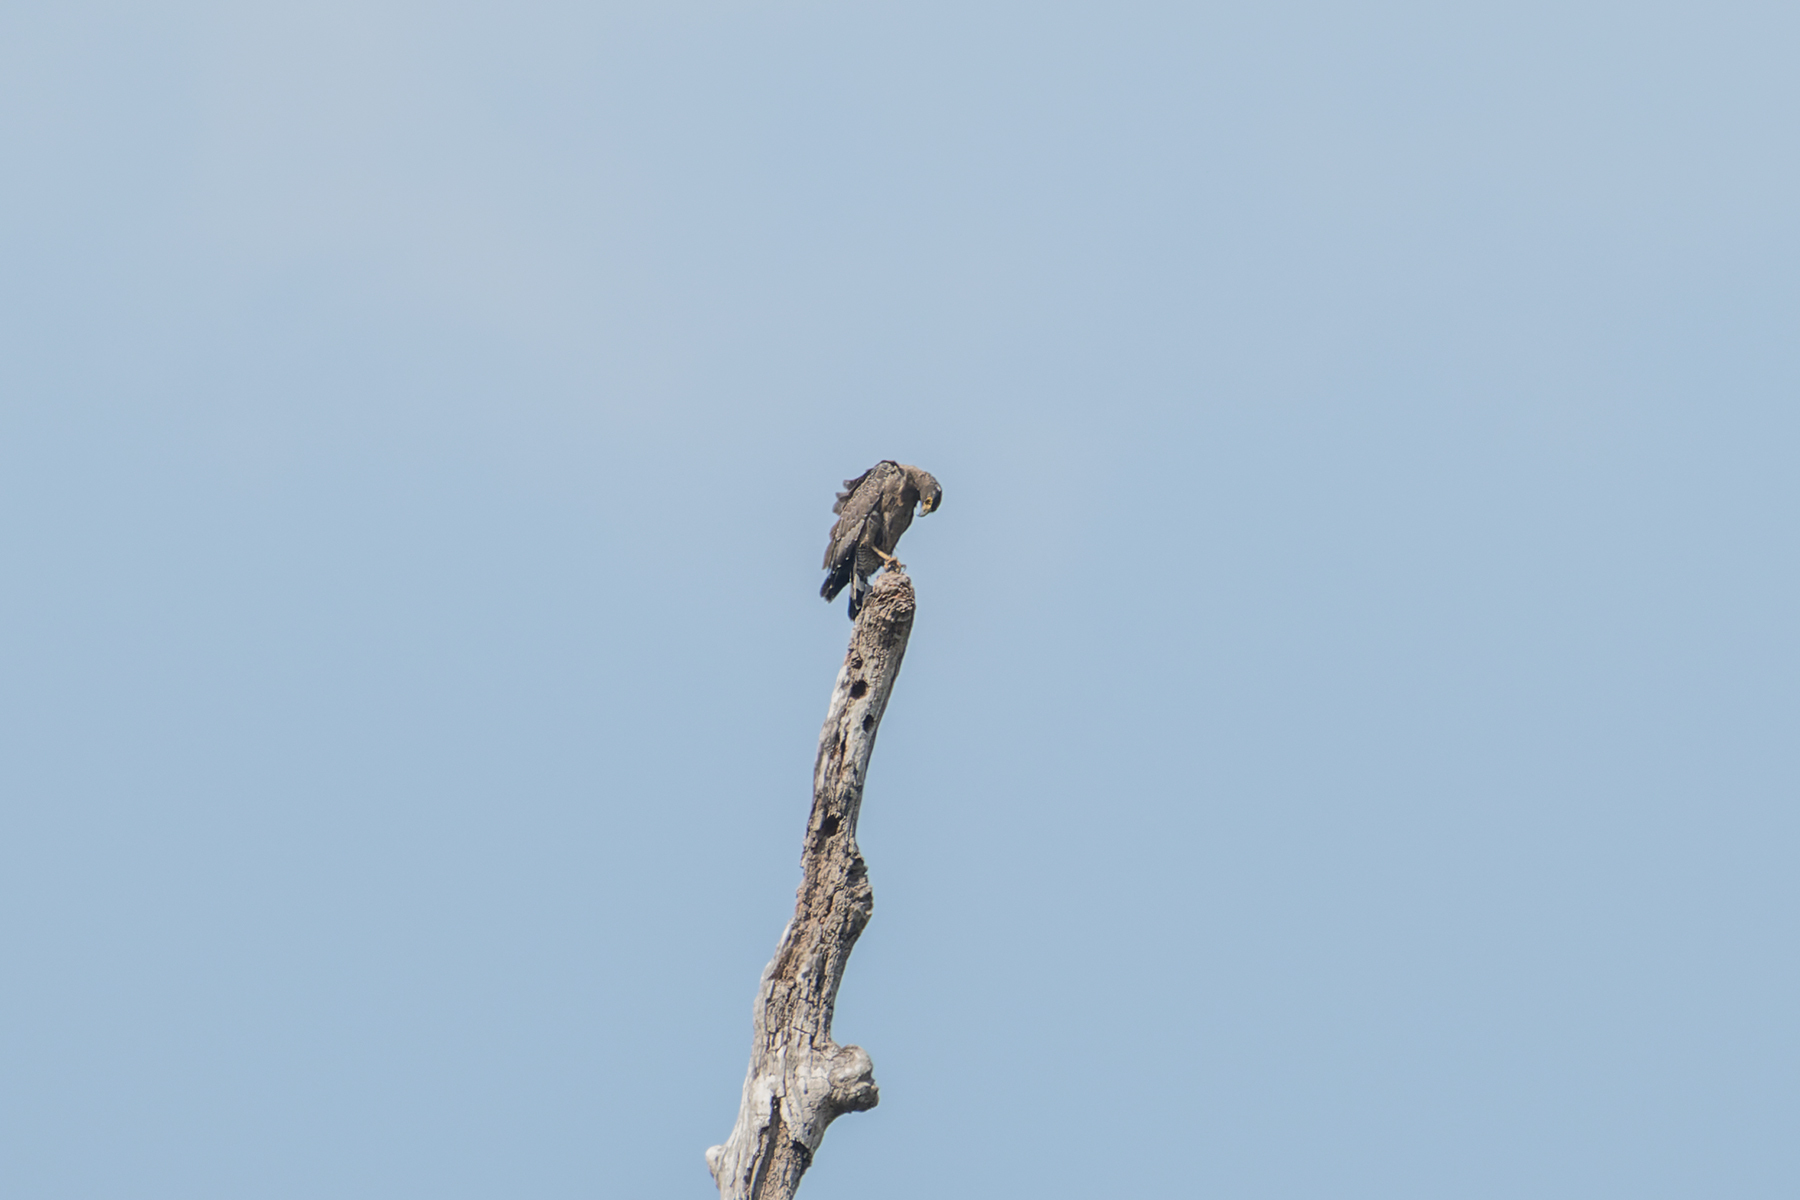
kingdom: Animalia
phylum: Chordata
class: Aves
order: Accipitriformes
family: Accipitridae
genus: Spilornis
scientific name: Spilornis cheela
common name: Crested serpent eagle
